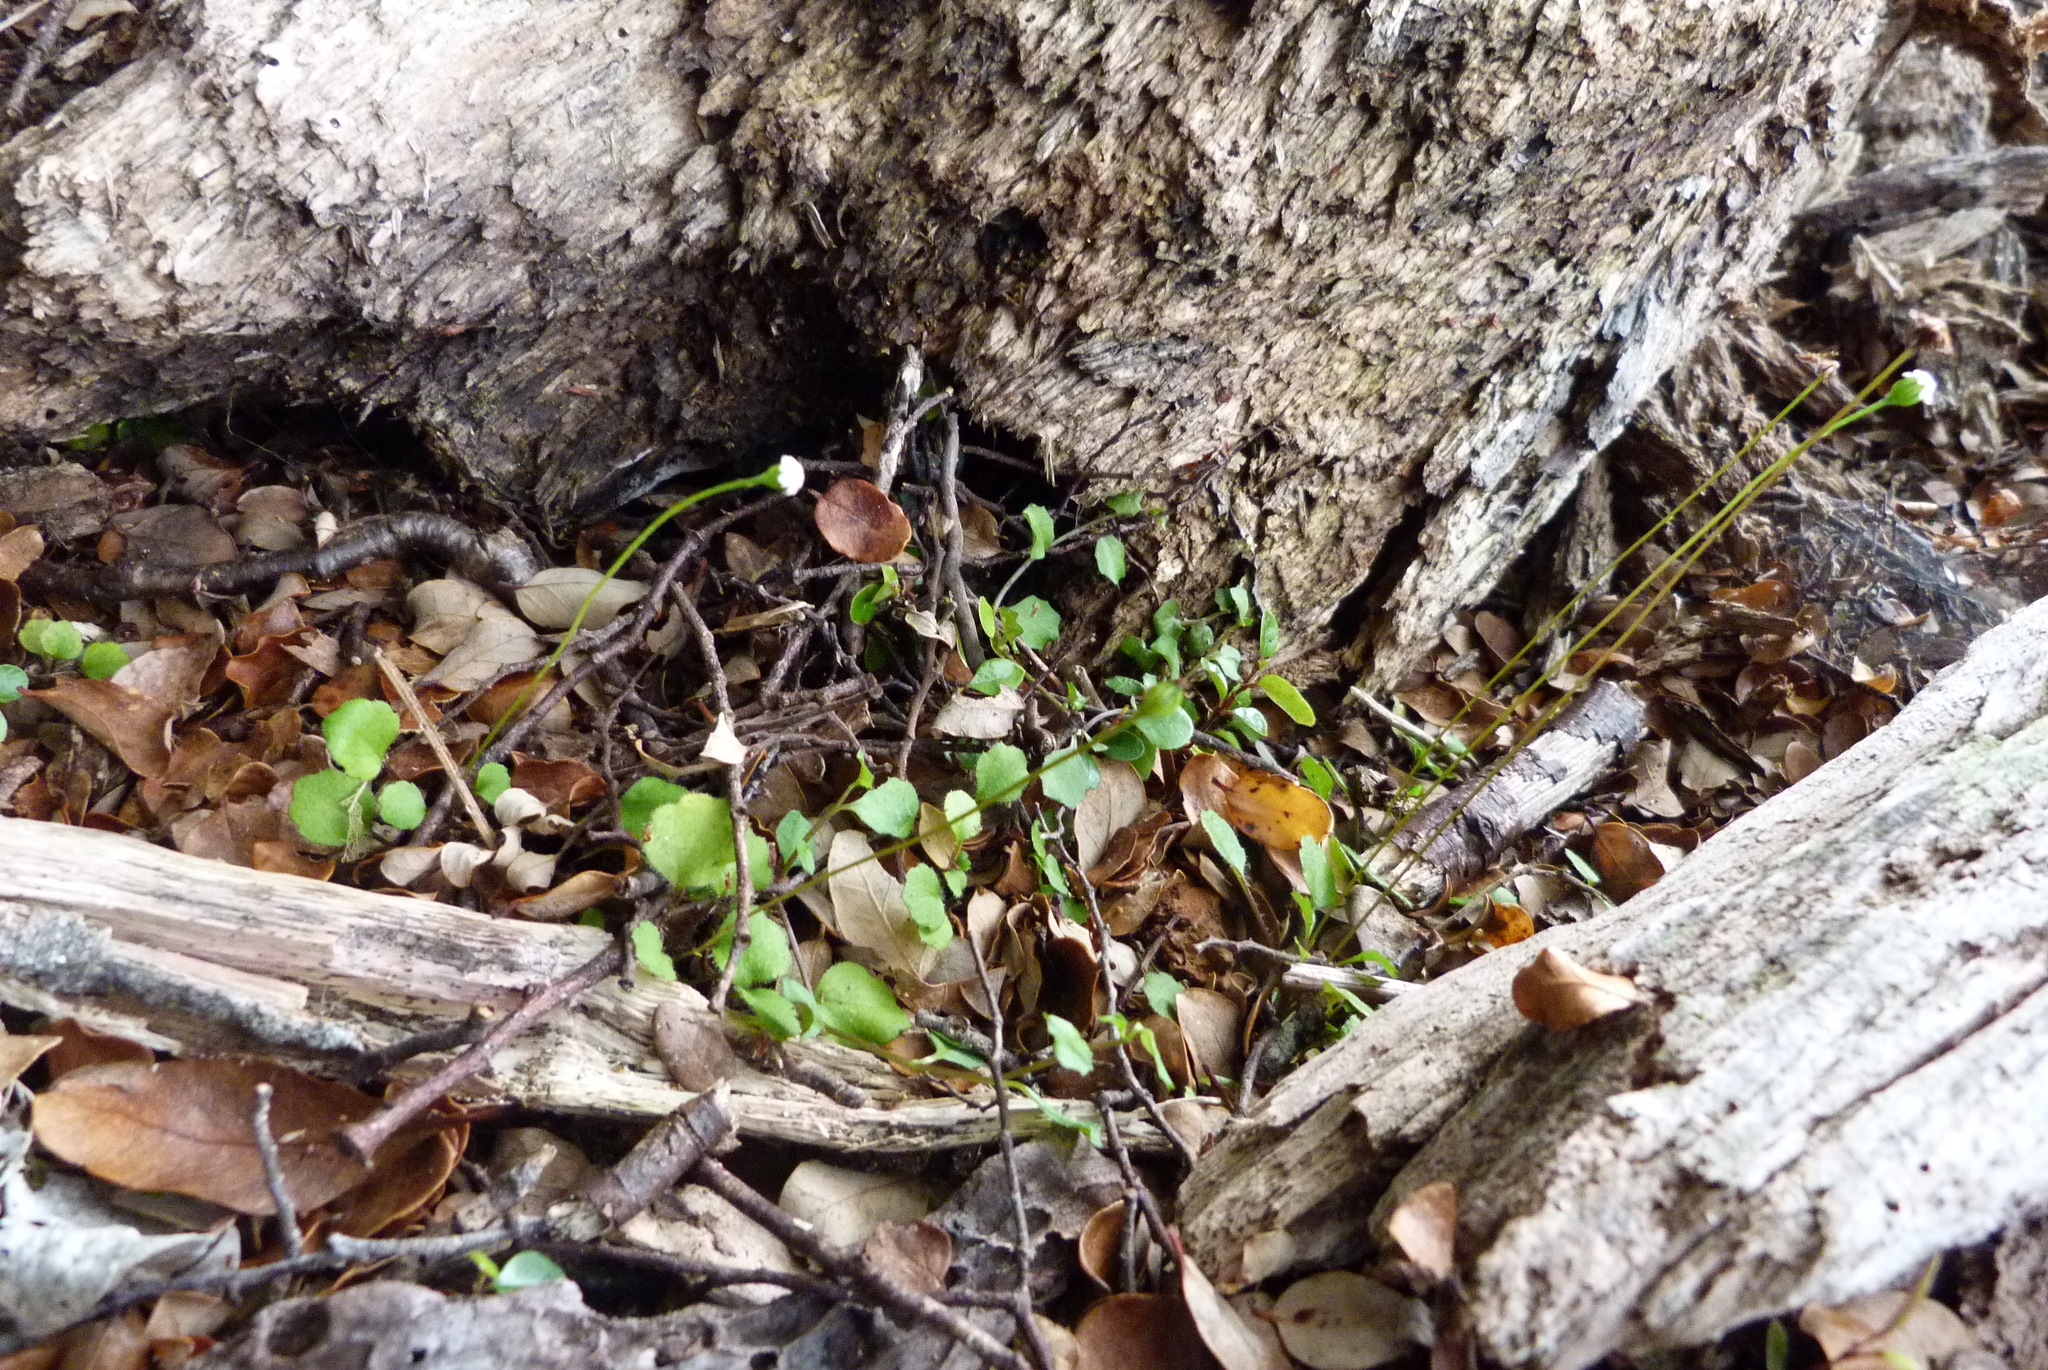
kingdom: Plantae
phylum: Tracheophyta
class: Magnoliopsida
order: Asterales
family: Asteraceae
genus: Lagenophora
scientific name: Lagenophora strangulata
